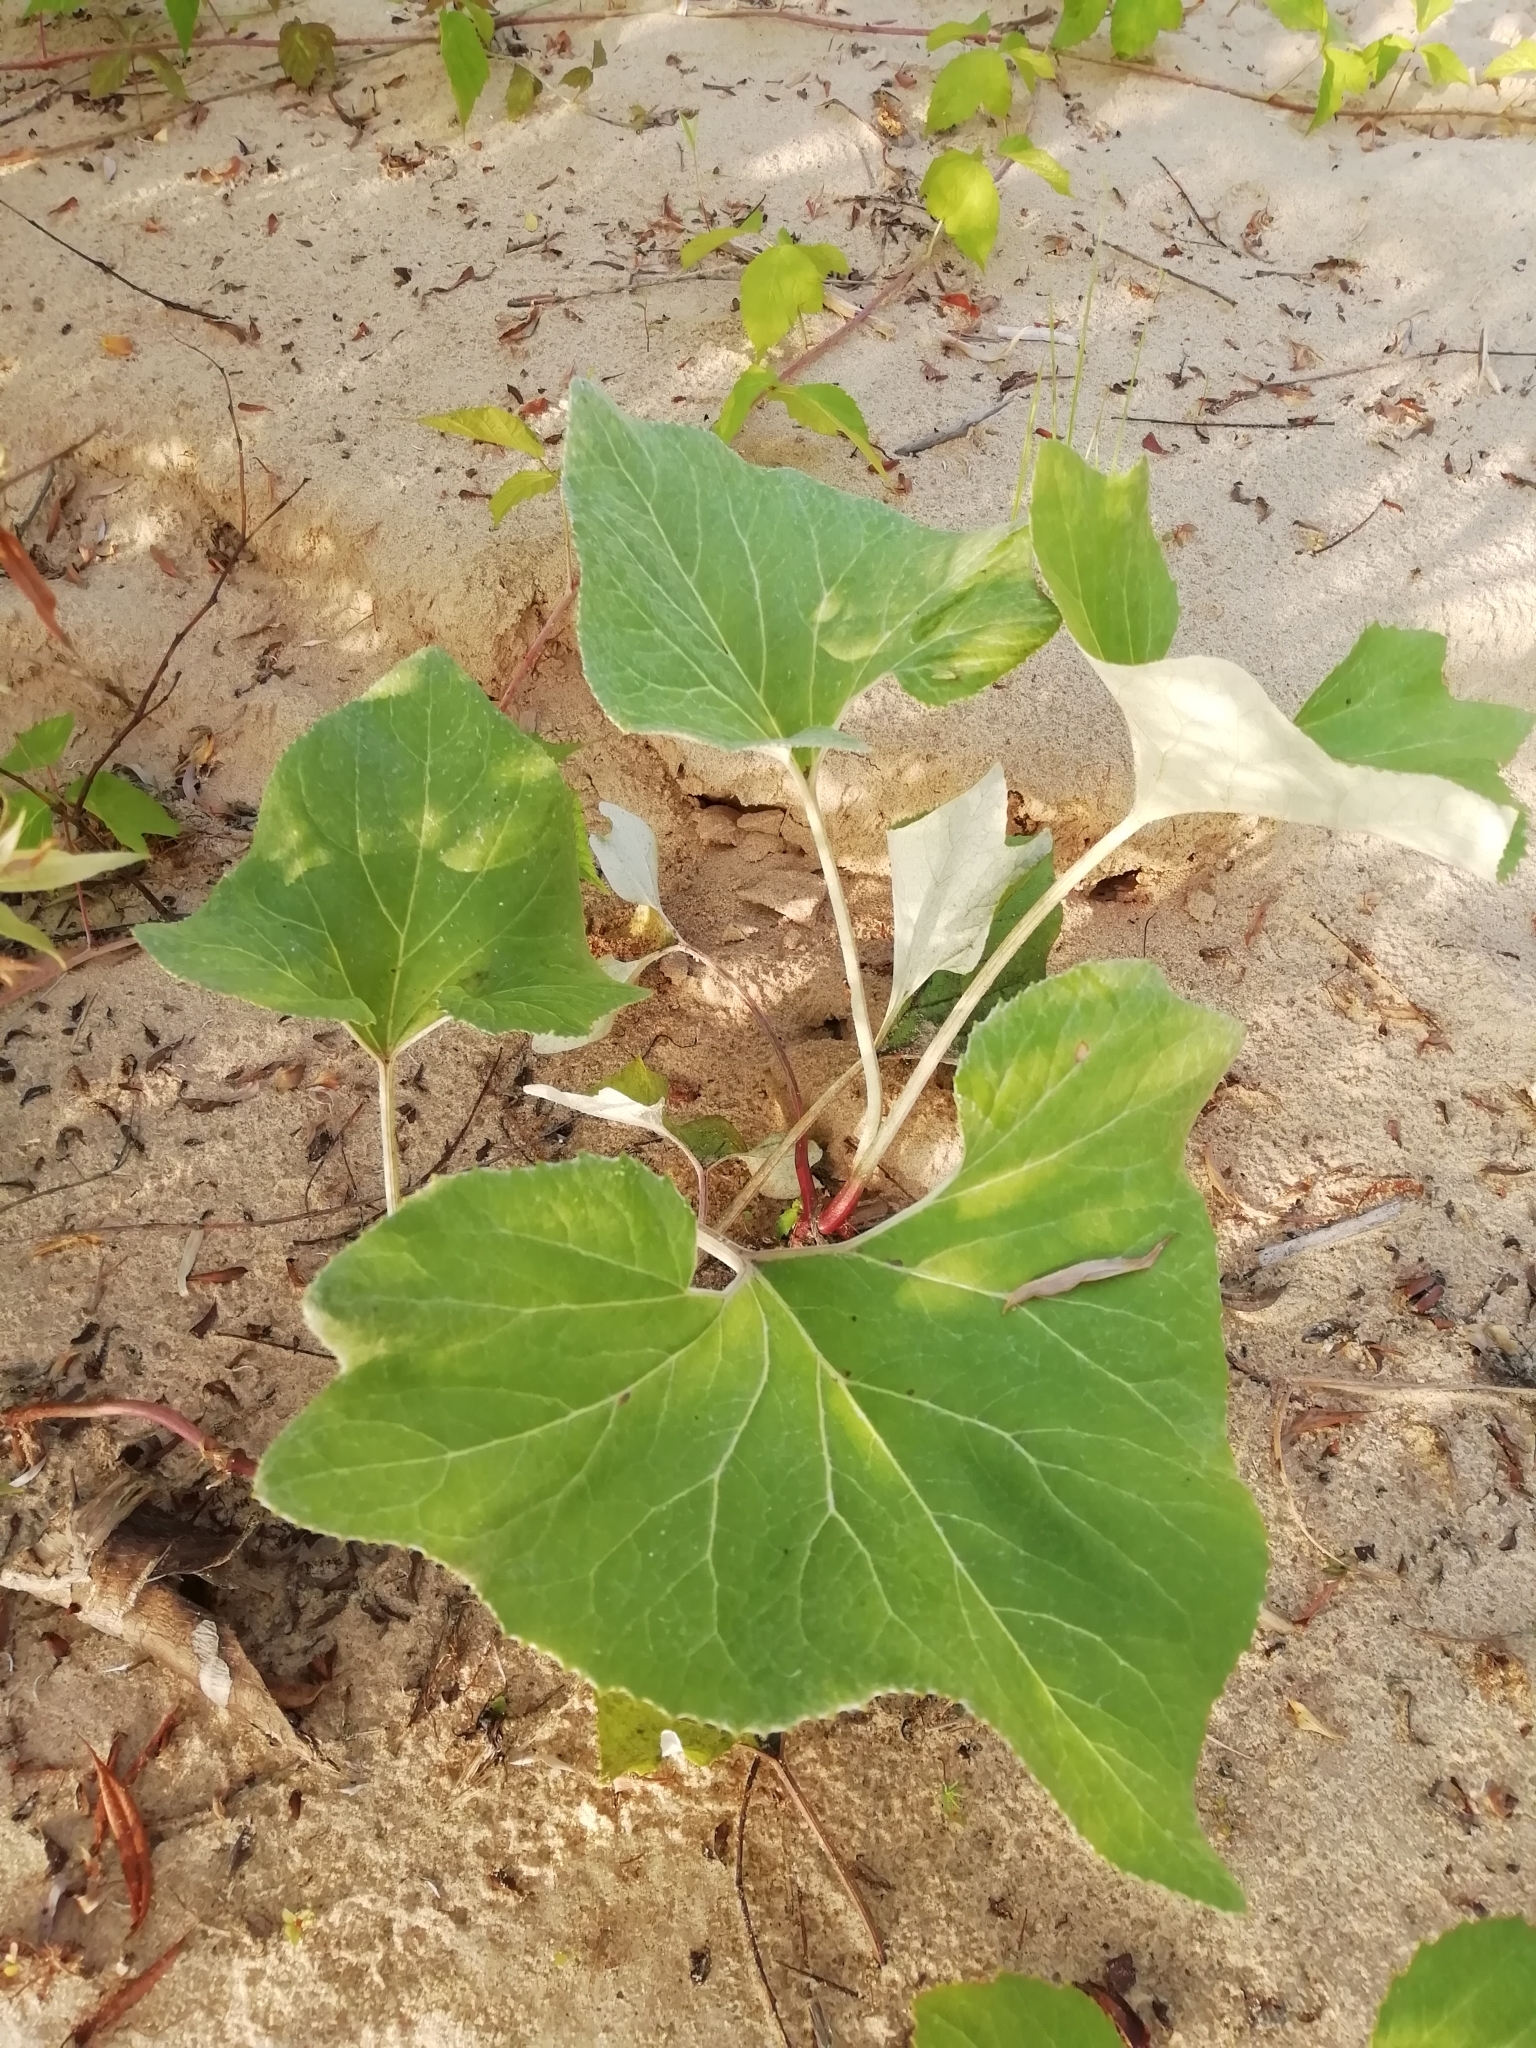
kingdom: Plantae
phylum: Tracheophyta
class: Magnoliopsida
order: Asterales
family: Asteraceae
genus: Petasites
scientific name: Petasites spurius
